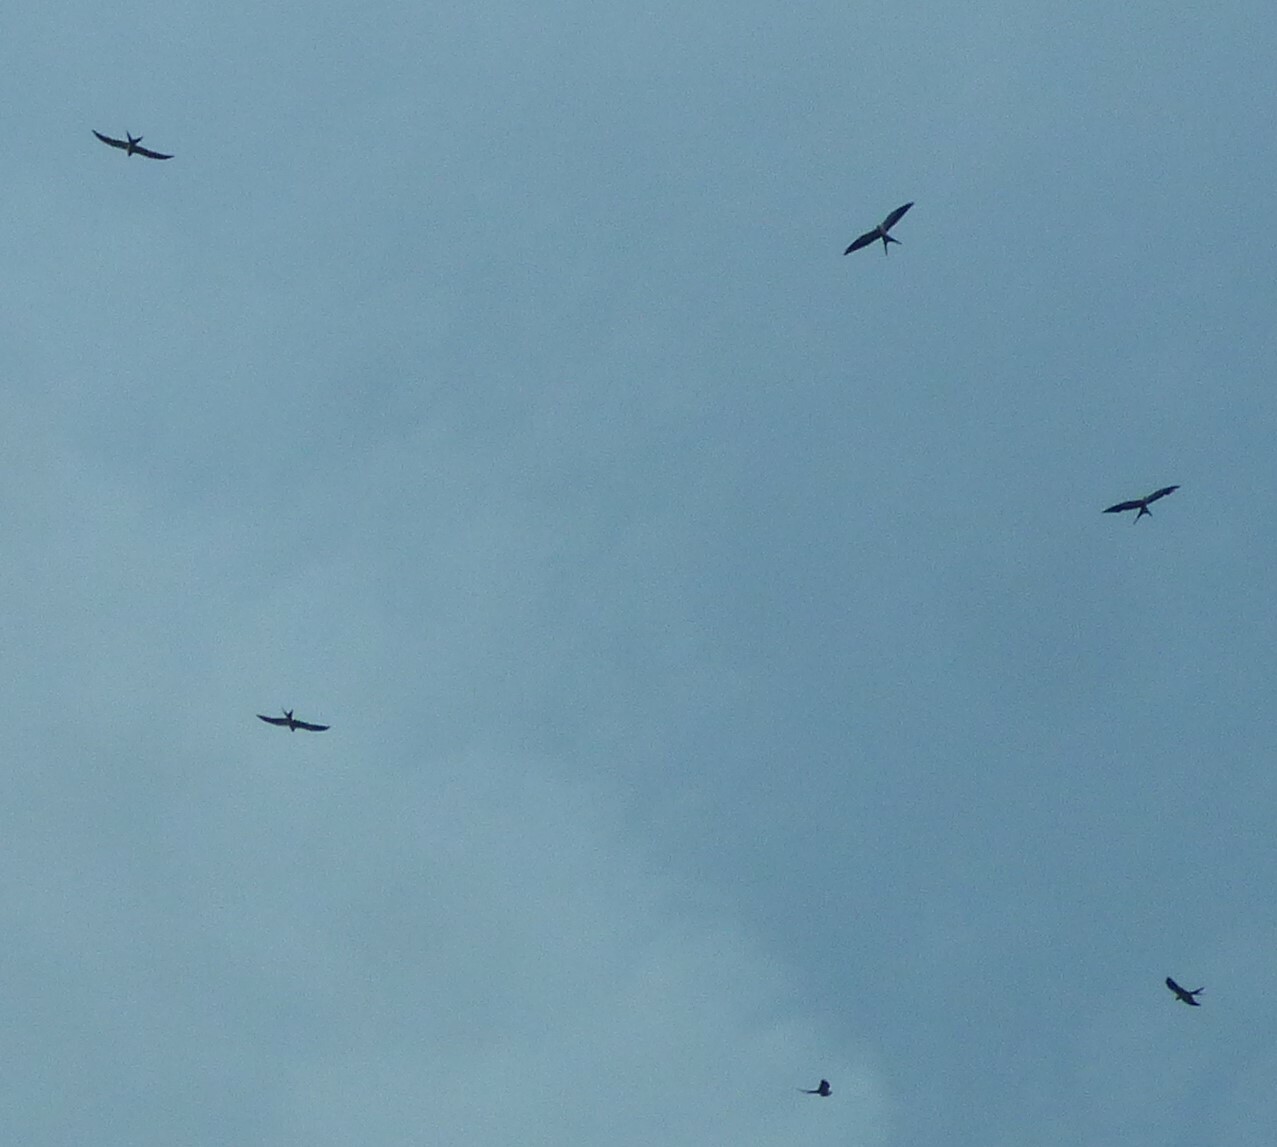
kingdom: Animalia
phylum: Chordata
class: Aves
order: Accipitriformes
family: Accipitridae
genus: Elanoides
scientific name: Elanoides forficatus
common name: Swallow-tailed kite
